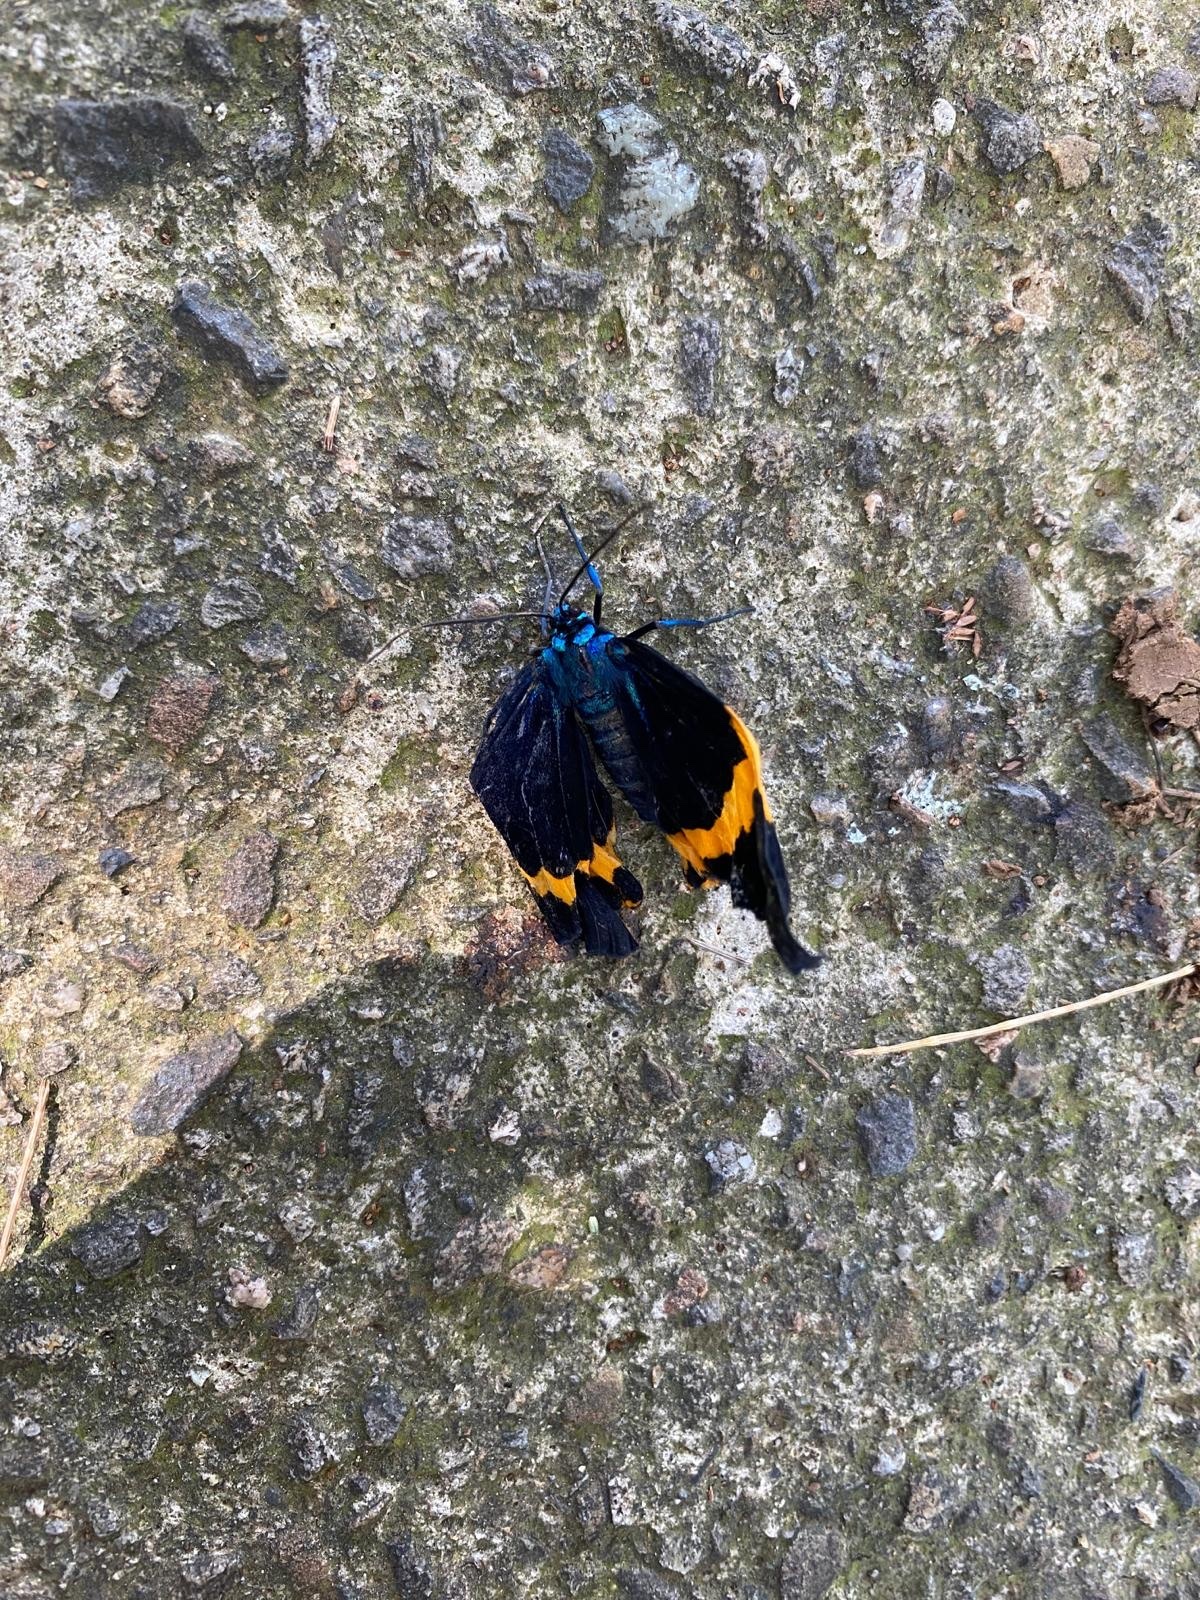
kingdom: Animalia
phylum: Arthropoda
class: Insecta
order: Lepidoptera
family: Geometridae
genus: Milionia
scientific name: Milionia basalis
